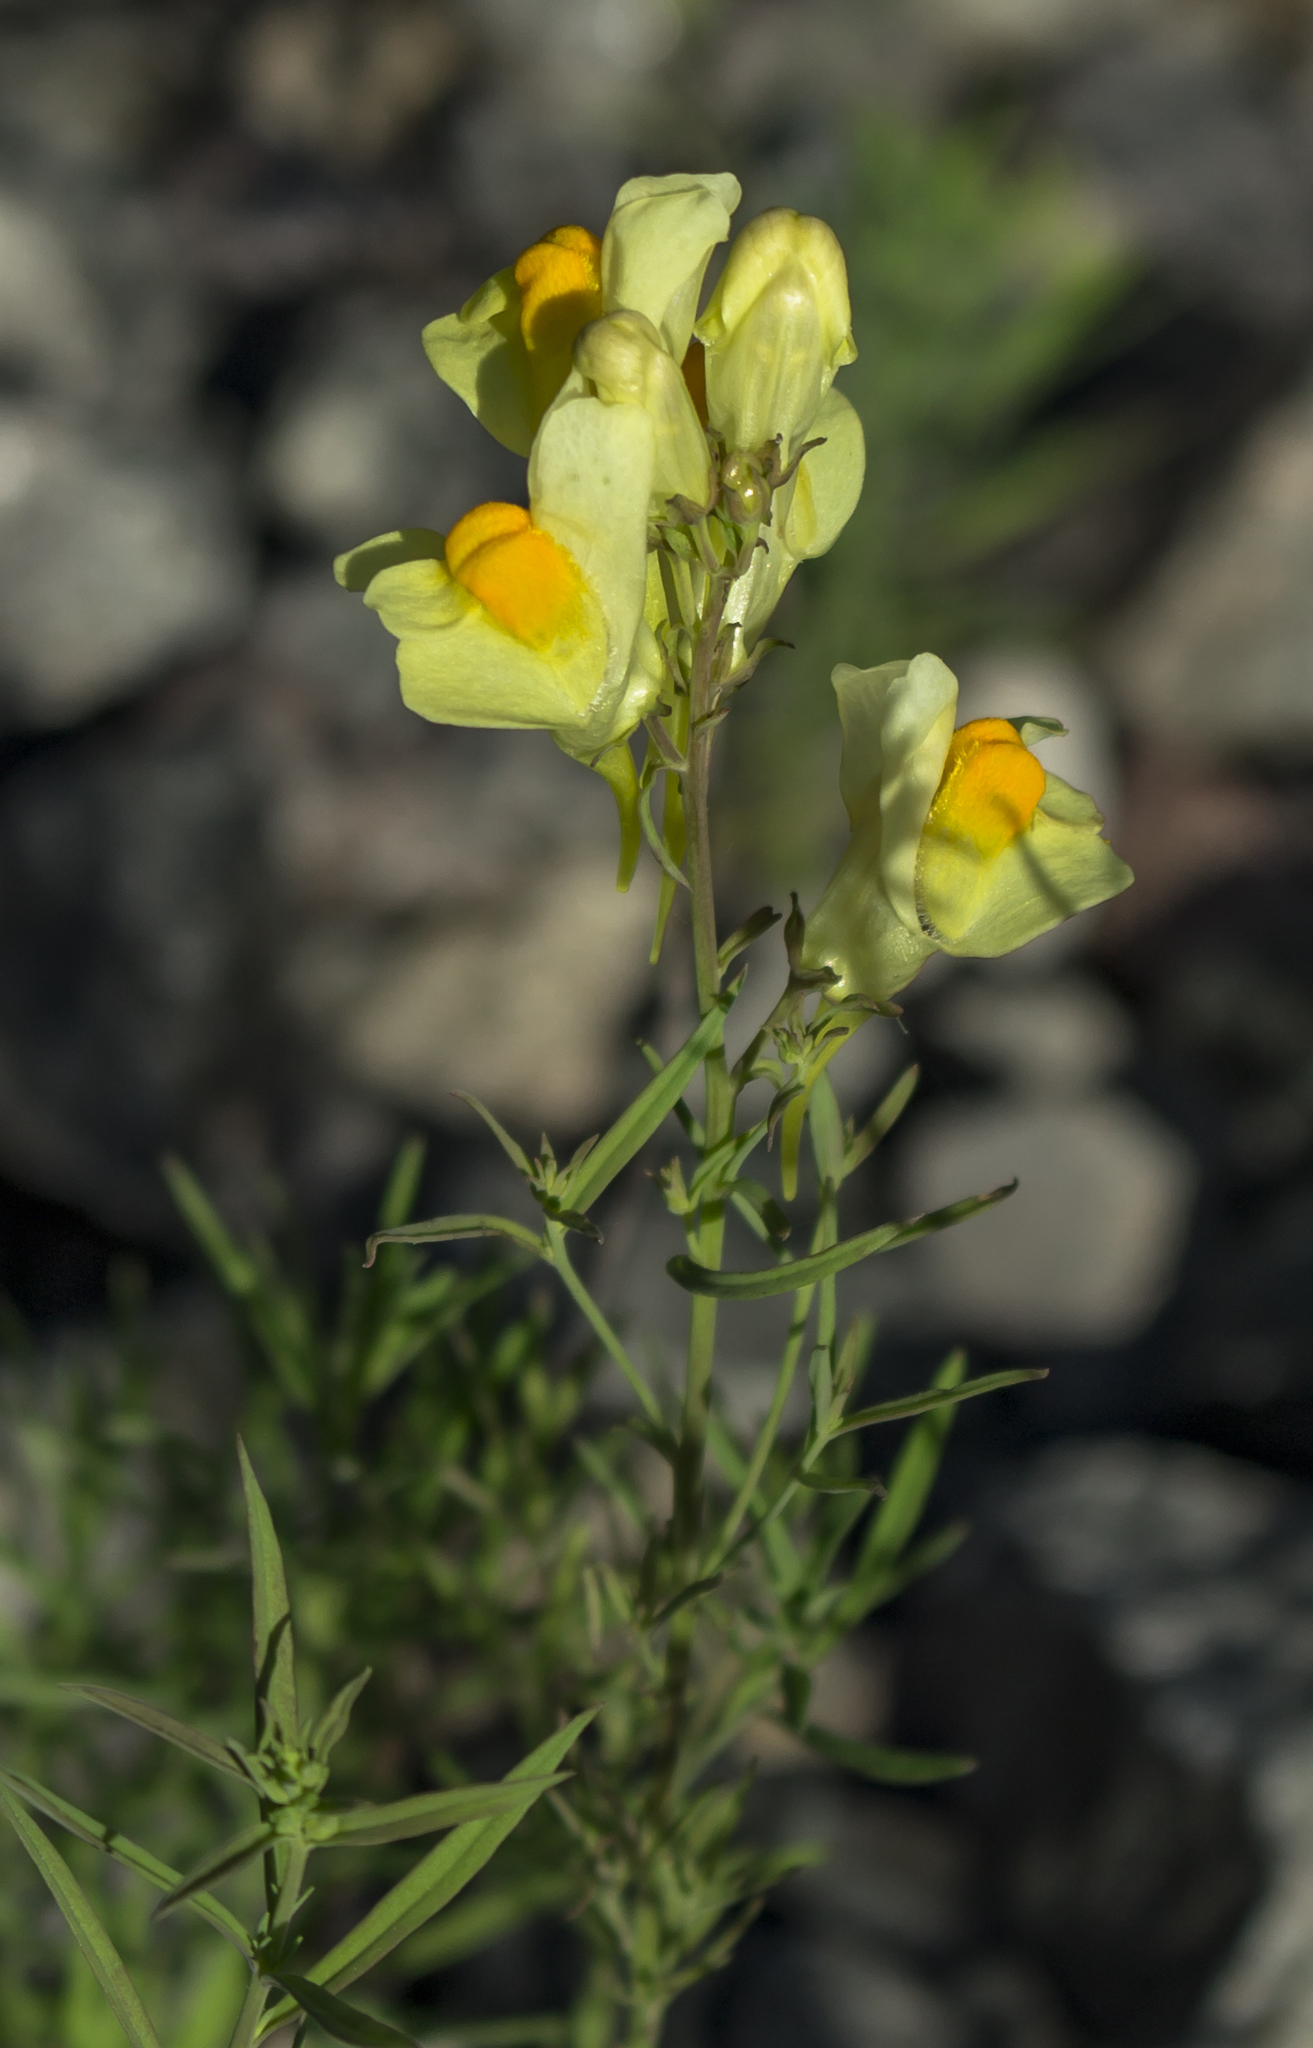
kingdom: Plantae
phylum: Tracheophyta
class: Magnoliopsida
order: Lamiales
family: Plantaginaceae
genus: Linaria
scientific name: Linaria vulgaris
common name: Butter and eggs
